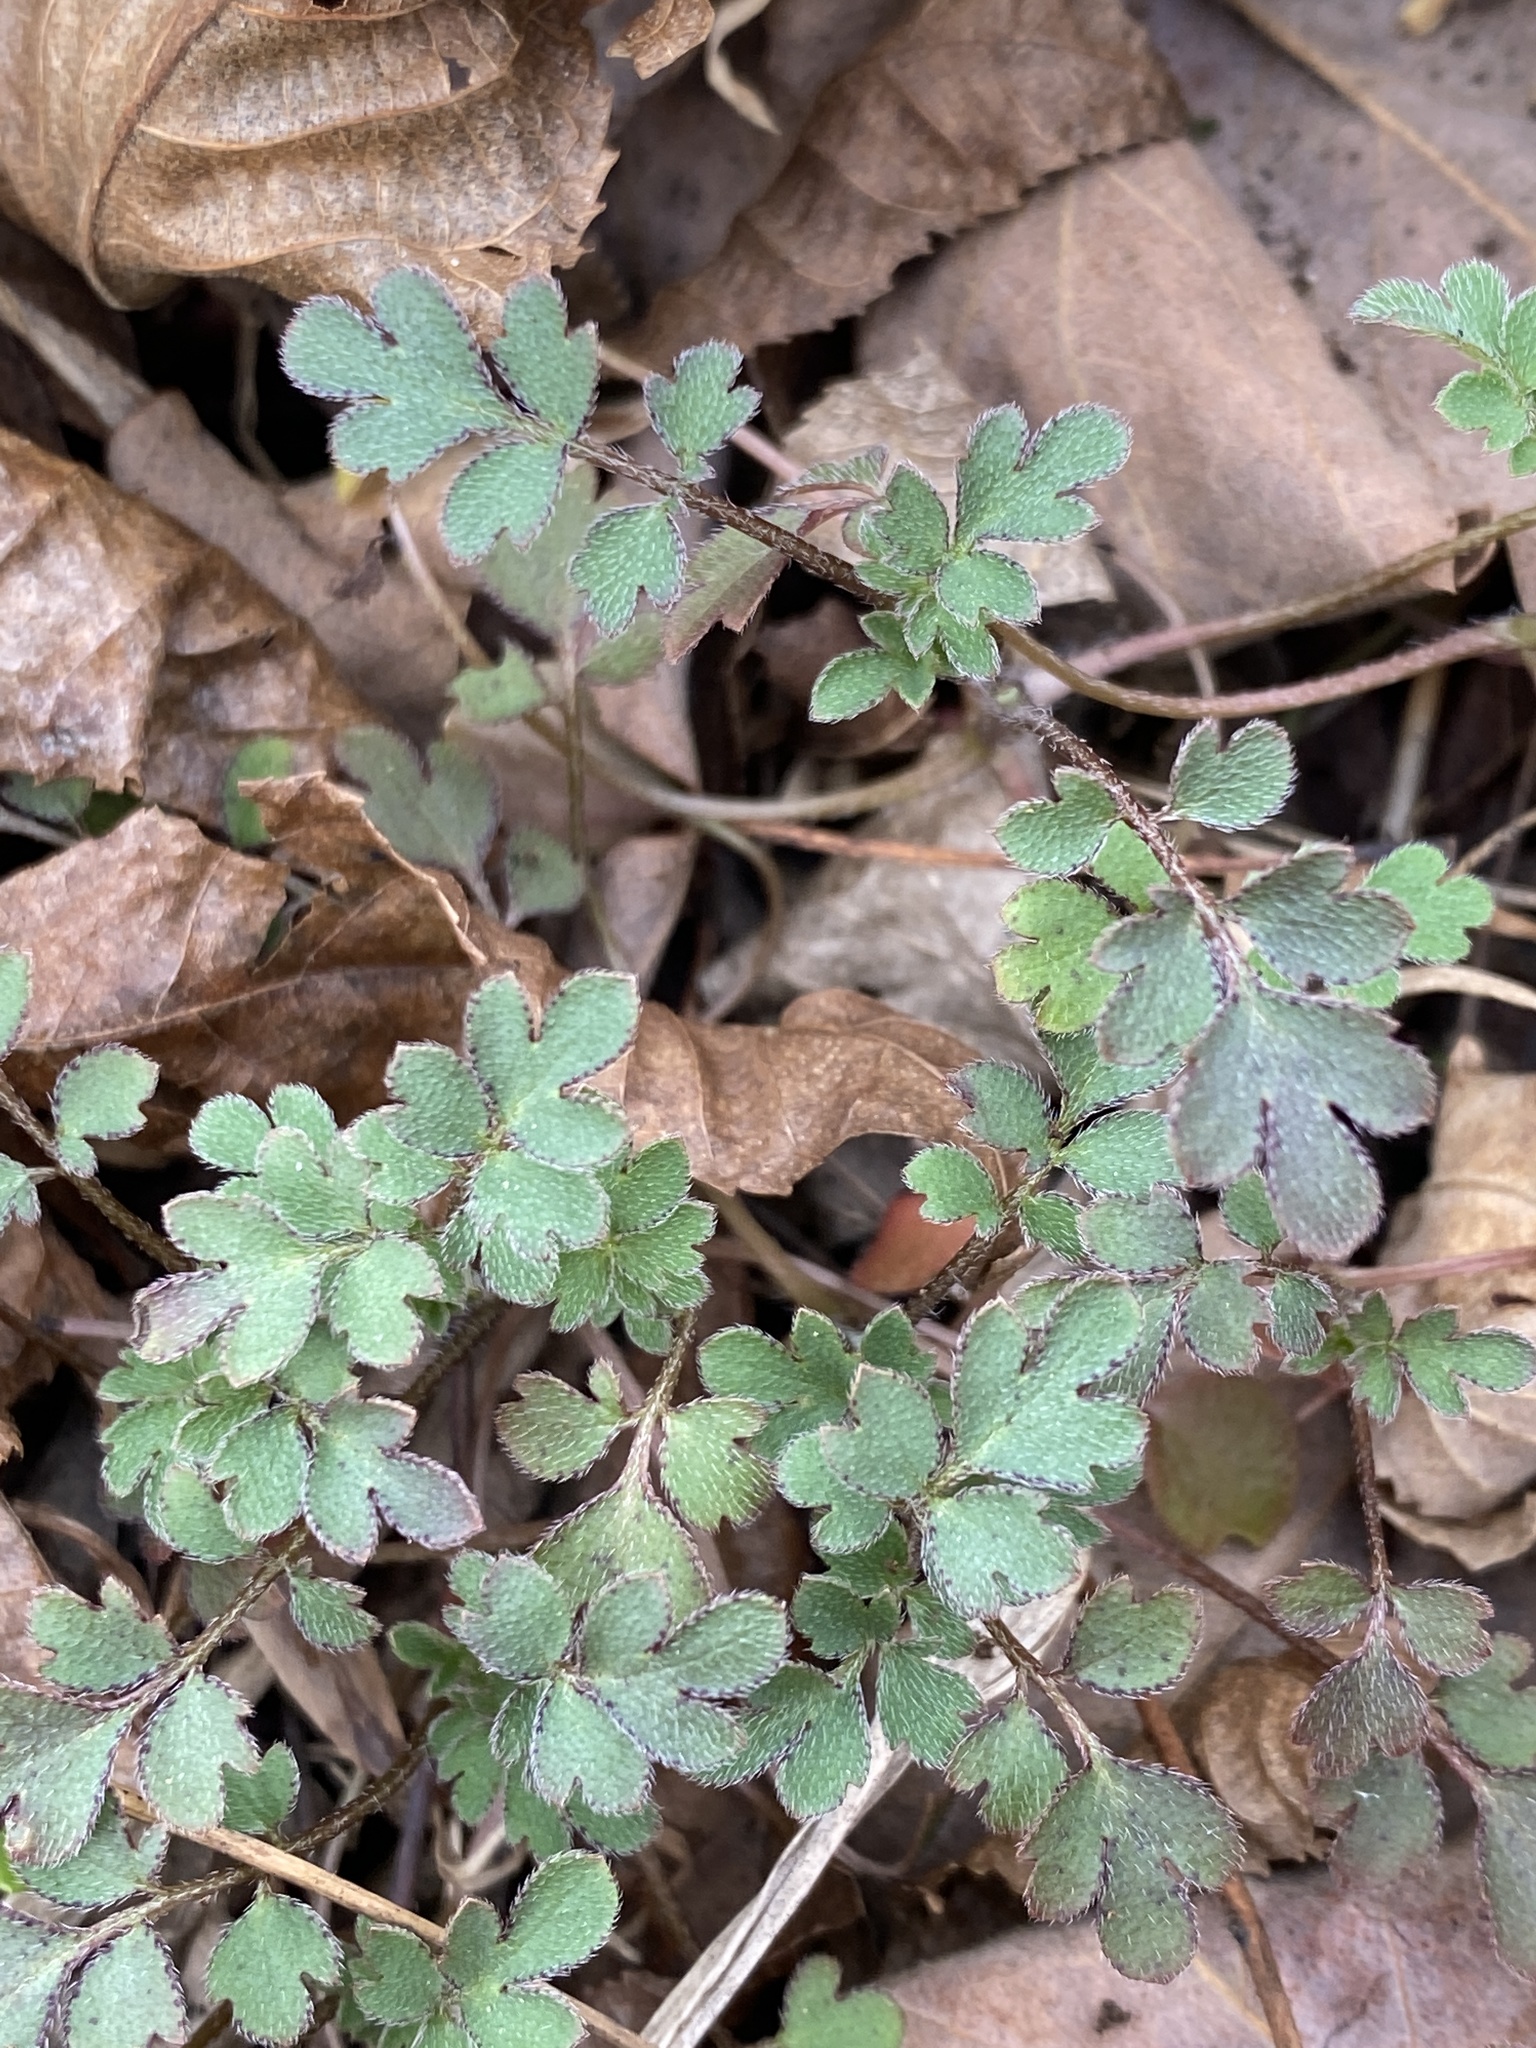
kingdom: Plantae
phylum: Tracheophyta
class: Magnoliopsida
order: Boraginales
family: Hydrophyllaceae
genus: Phacelia
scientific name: Phacelia covillei
